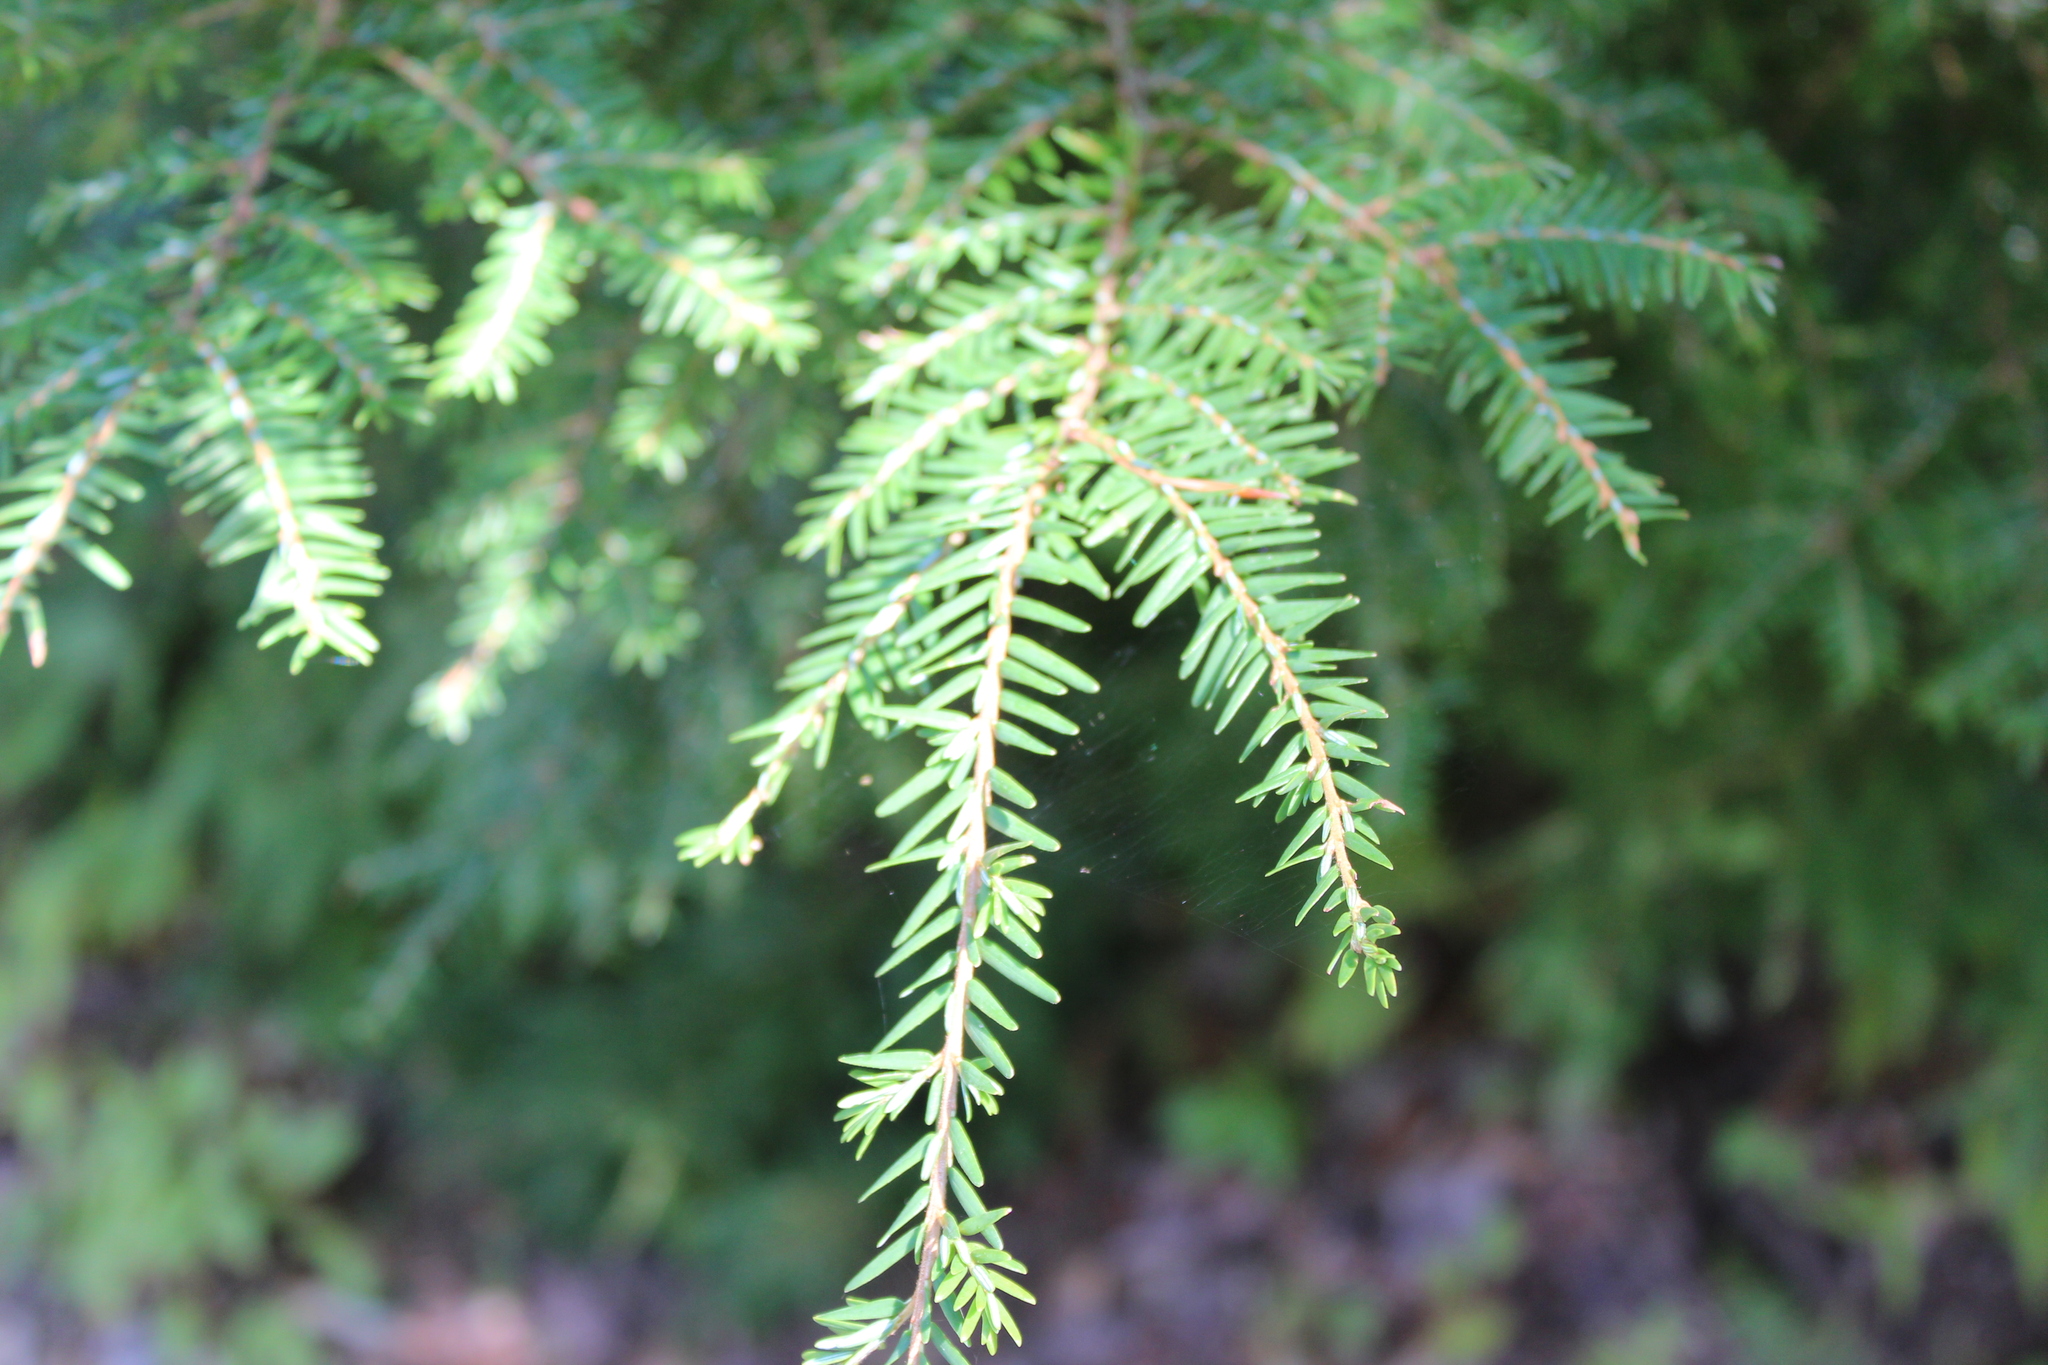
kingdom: Plantae
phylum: Tracheophyta
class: Pinopsida
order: Pinales
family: Pinaceae
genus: Tsuga
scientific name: Tsuga canadensis
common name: Eastern hemlock
